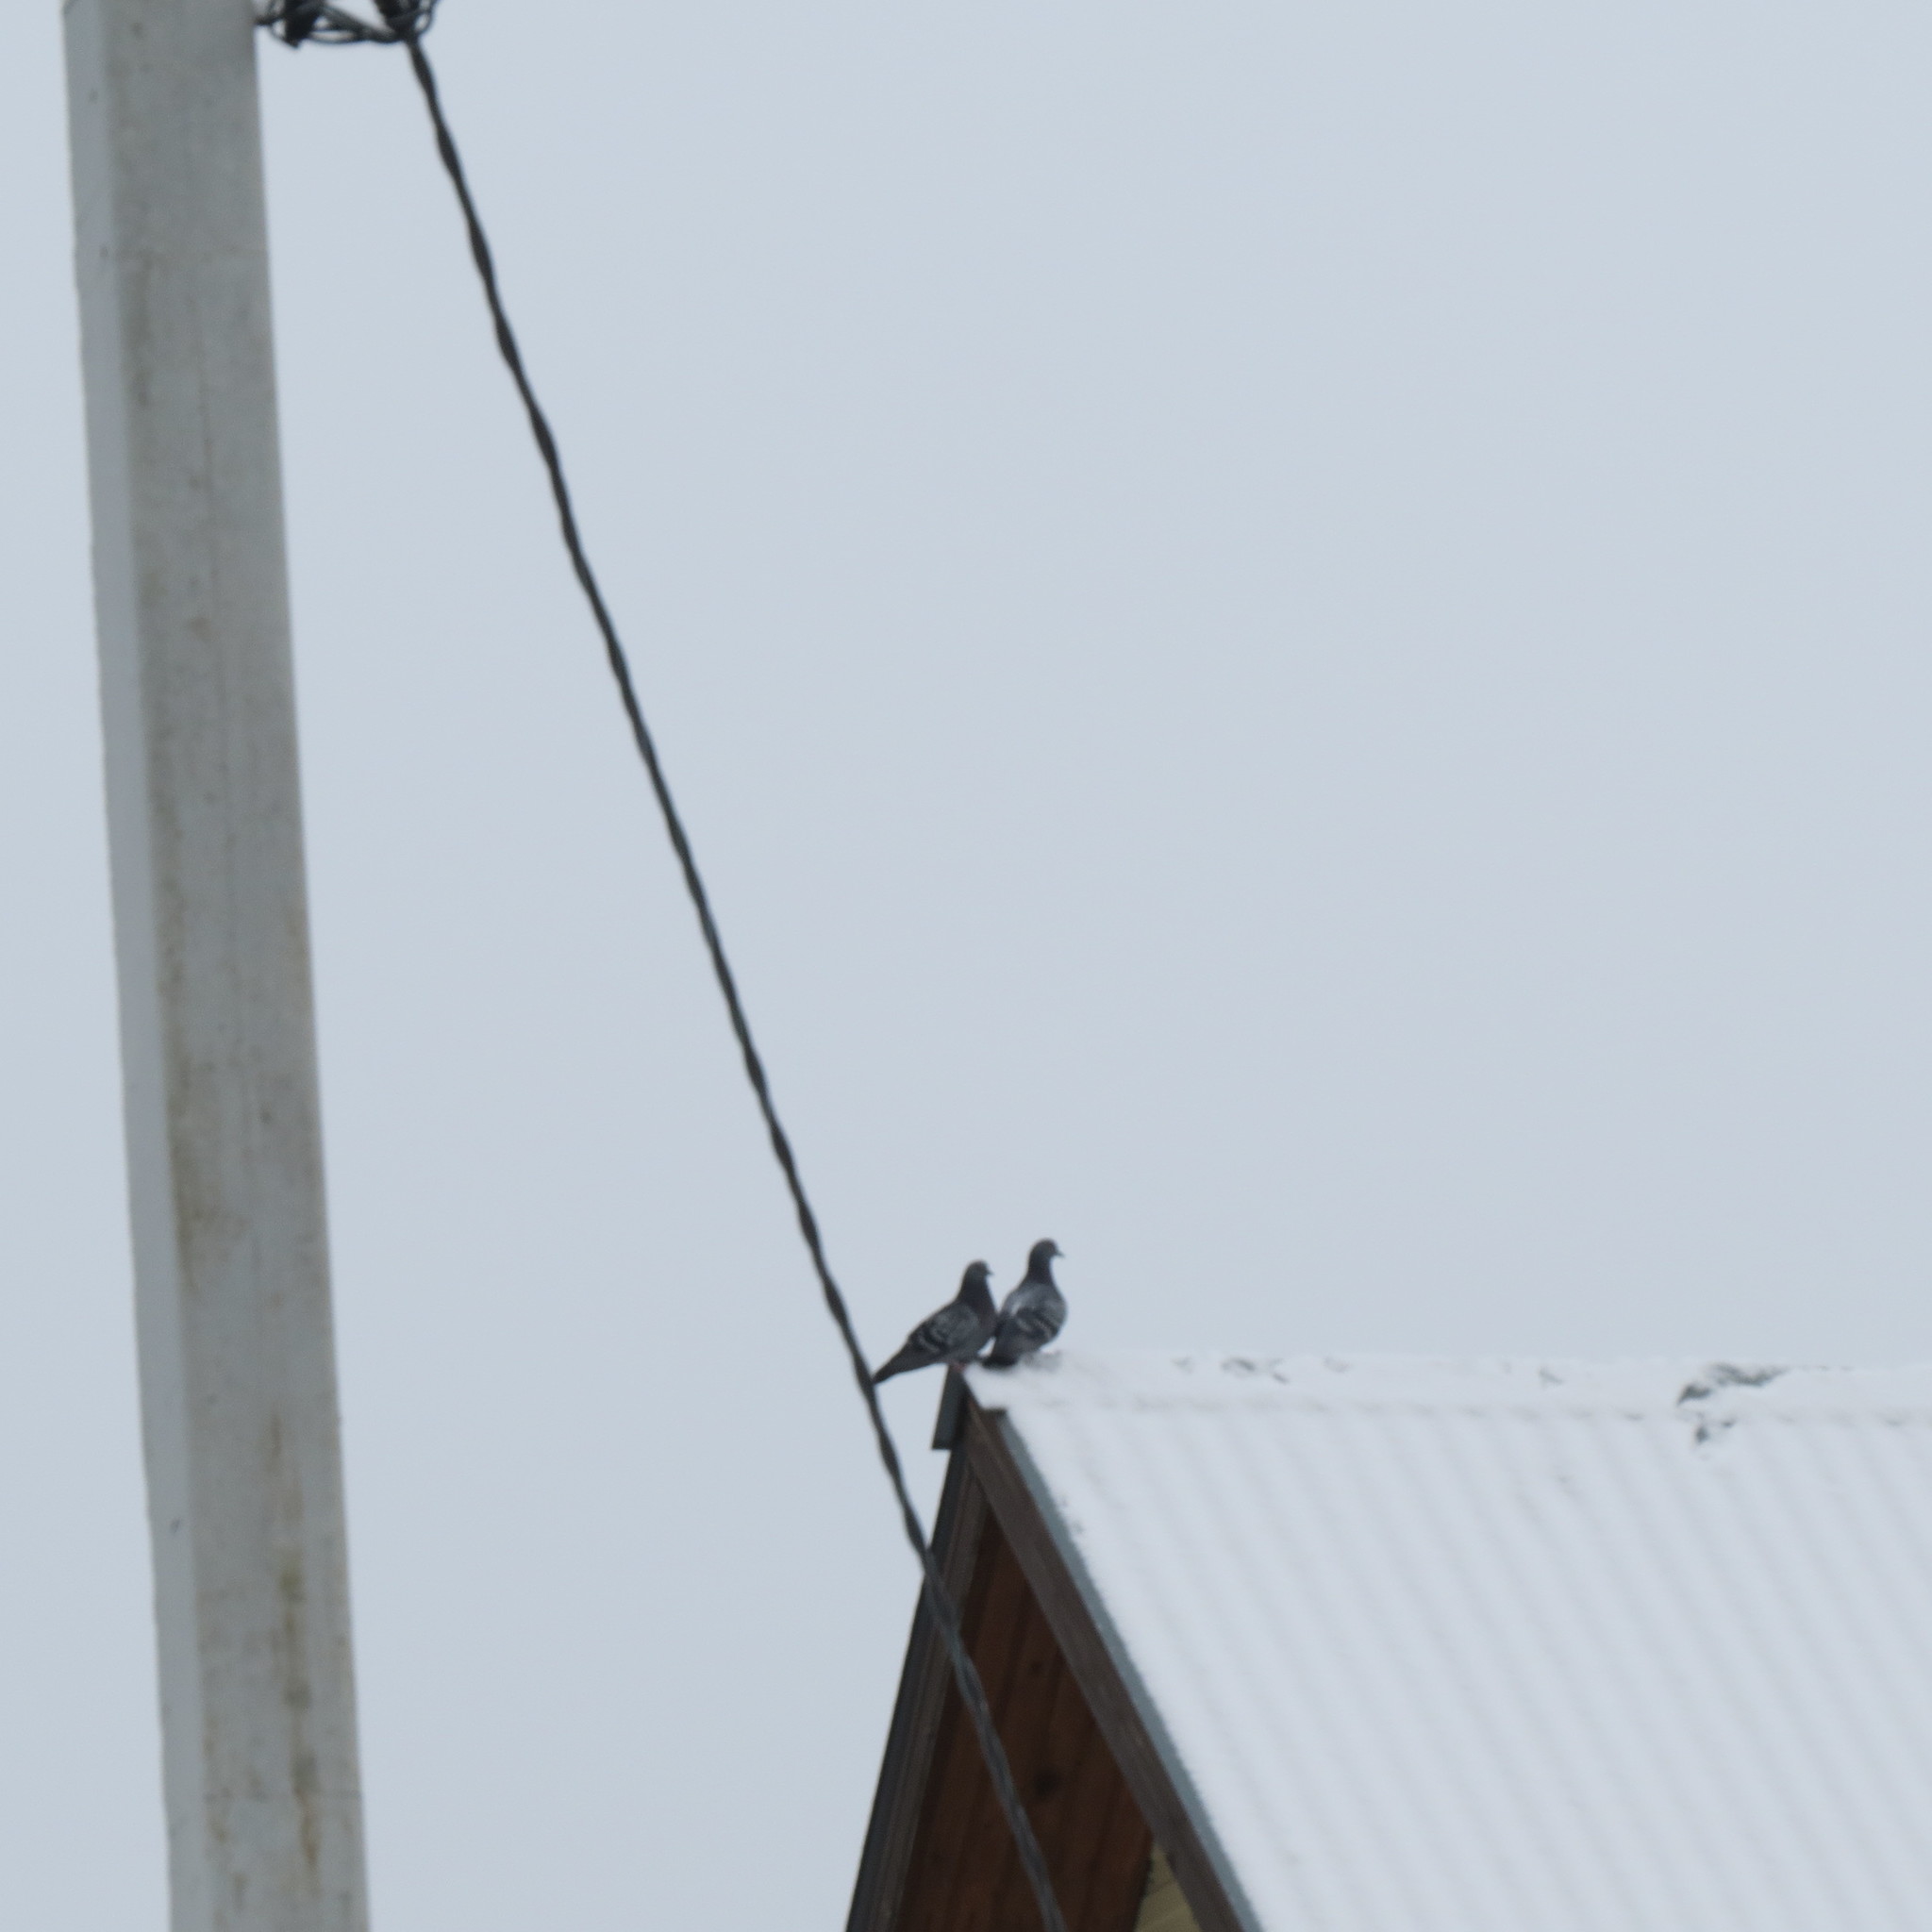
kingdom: Animalia
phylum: Chordata
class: Aves
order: Columbiformes
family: Columbidae
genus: Columba
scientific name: Columba livia
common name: Rock pigeon
